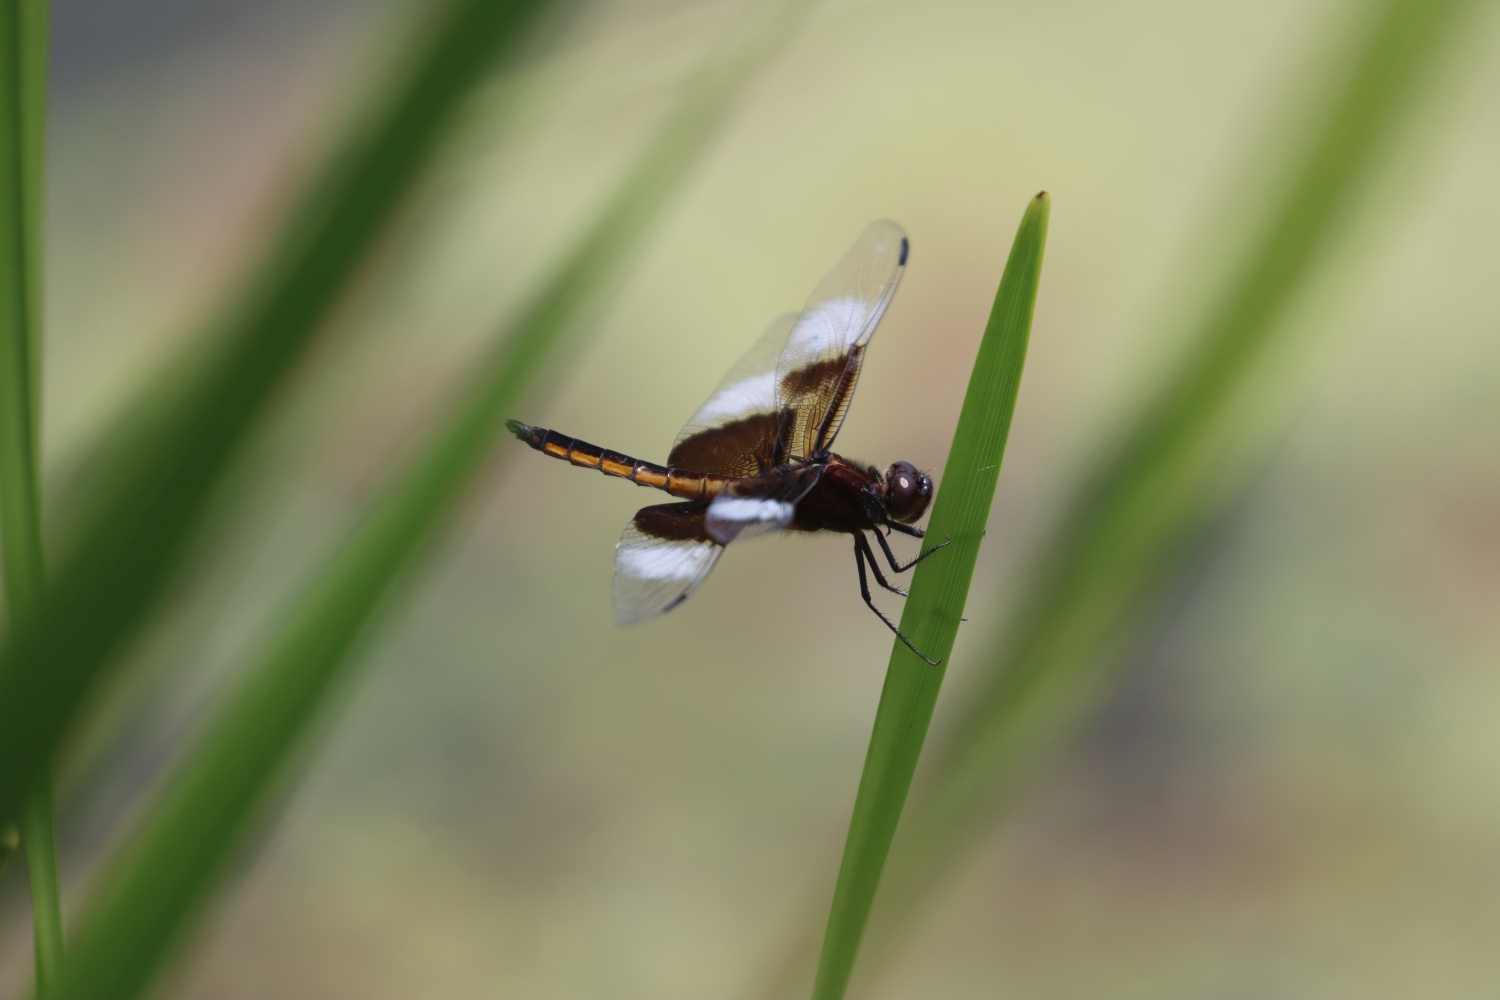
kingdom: Animalia
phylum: Arthropoda
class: Insecta
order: Odonata
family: Libellulidae
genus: Libellula
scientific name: Libellula luctuosa
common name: Widow skimmer
